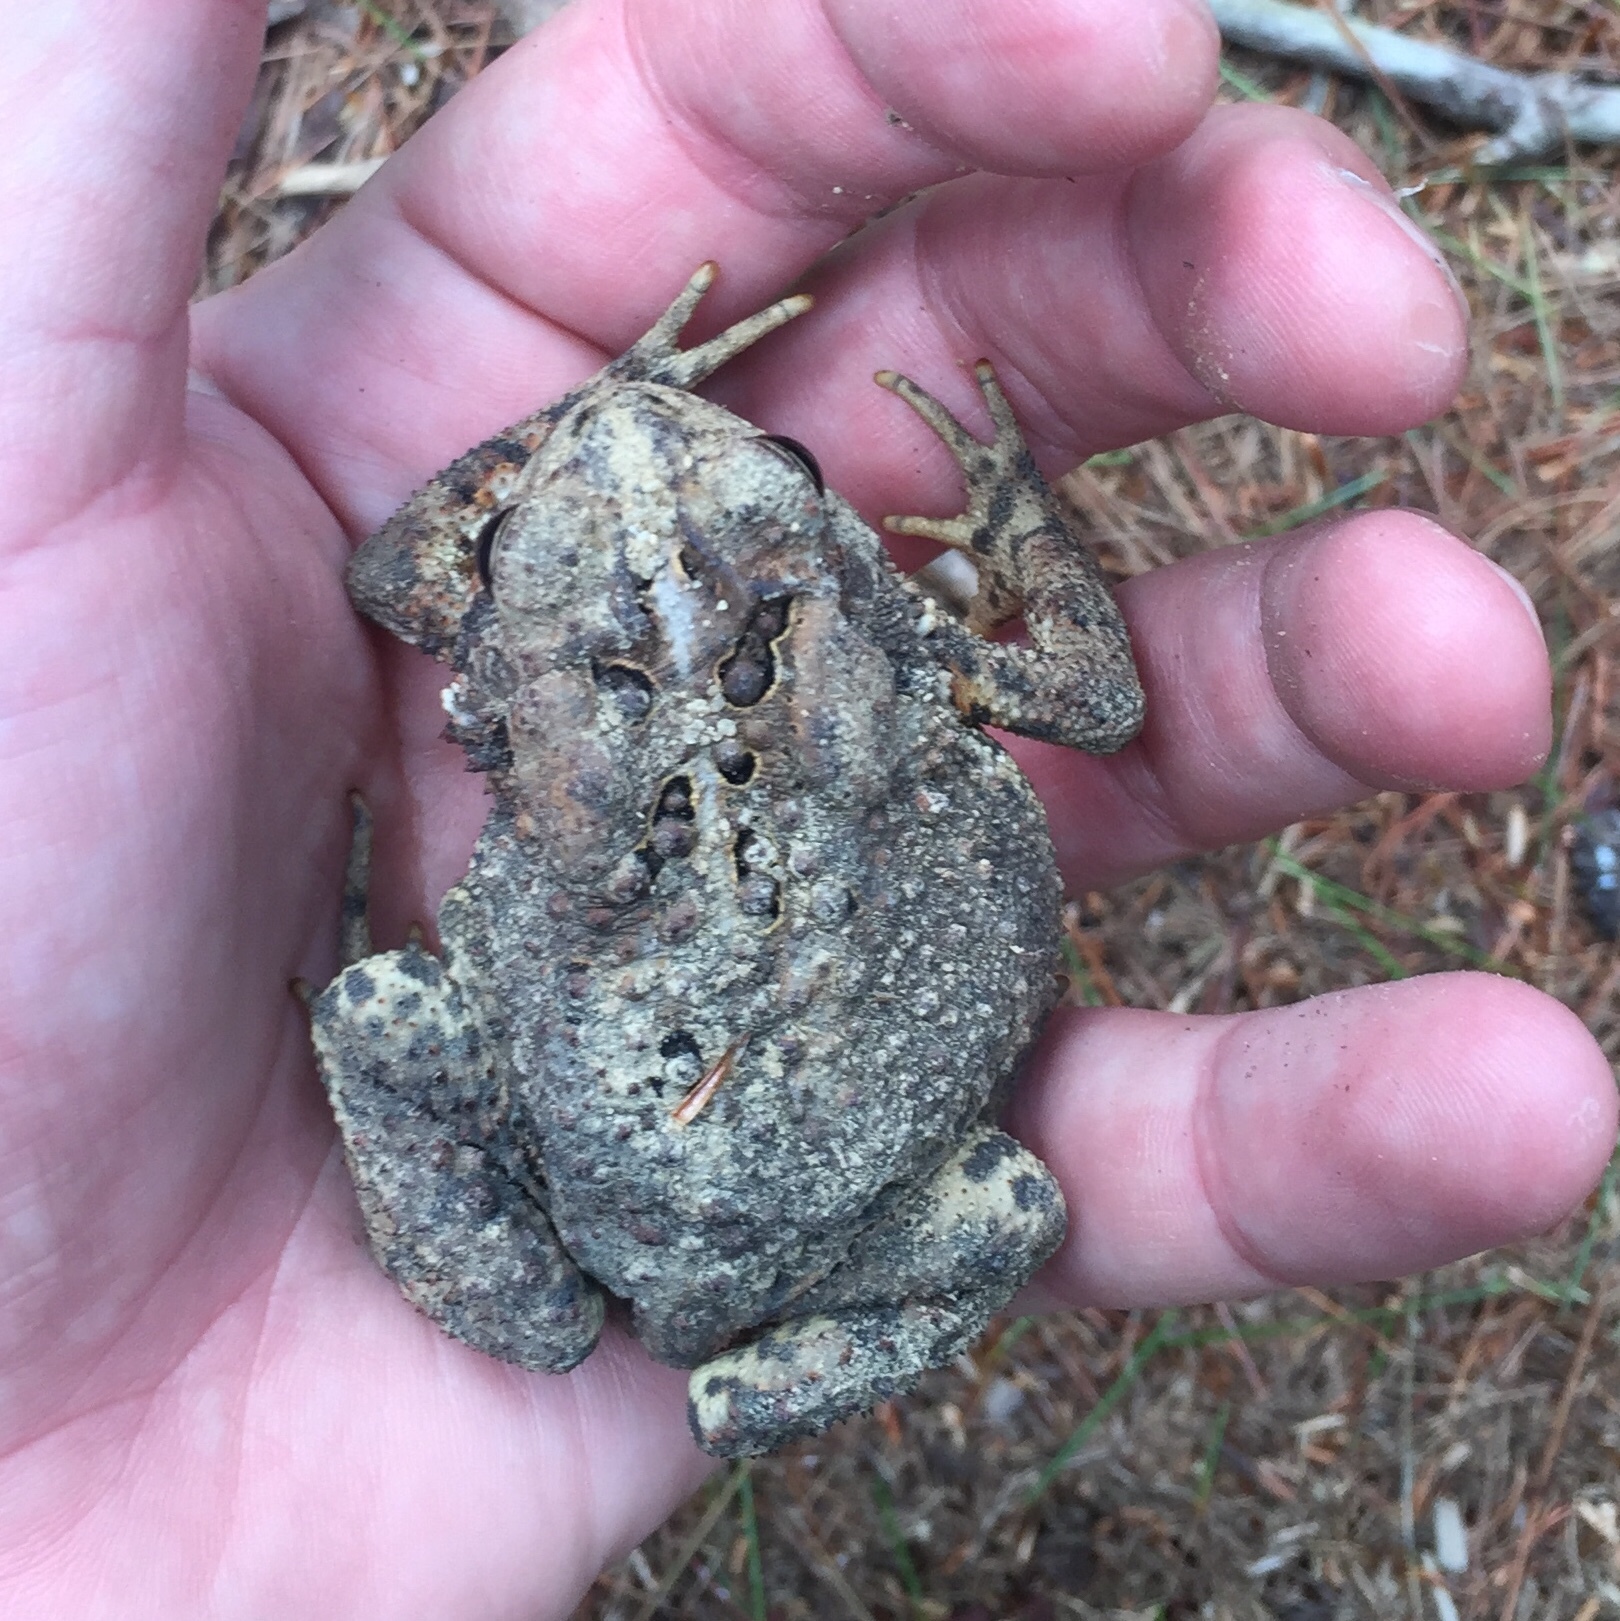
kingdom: Animalia
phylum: Chordata
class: Amphibia
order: Anura
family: Bufonidae
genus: Anaxyrus
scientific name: Anaxyrus americanus
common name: American toad
